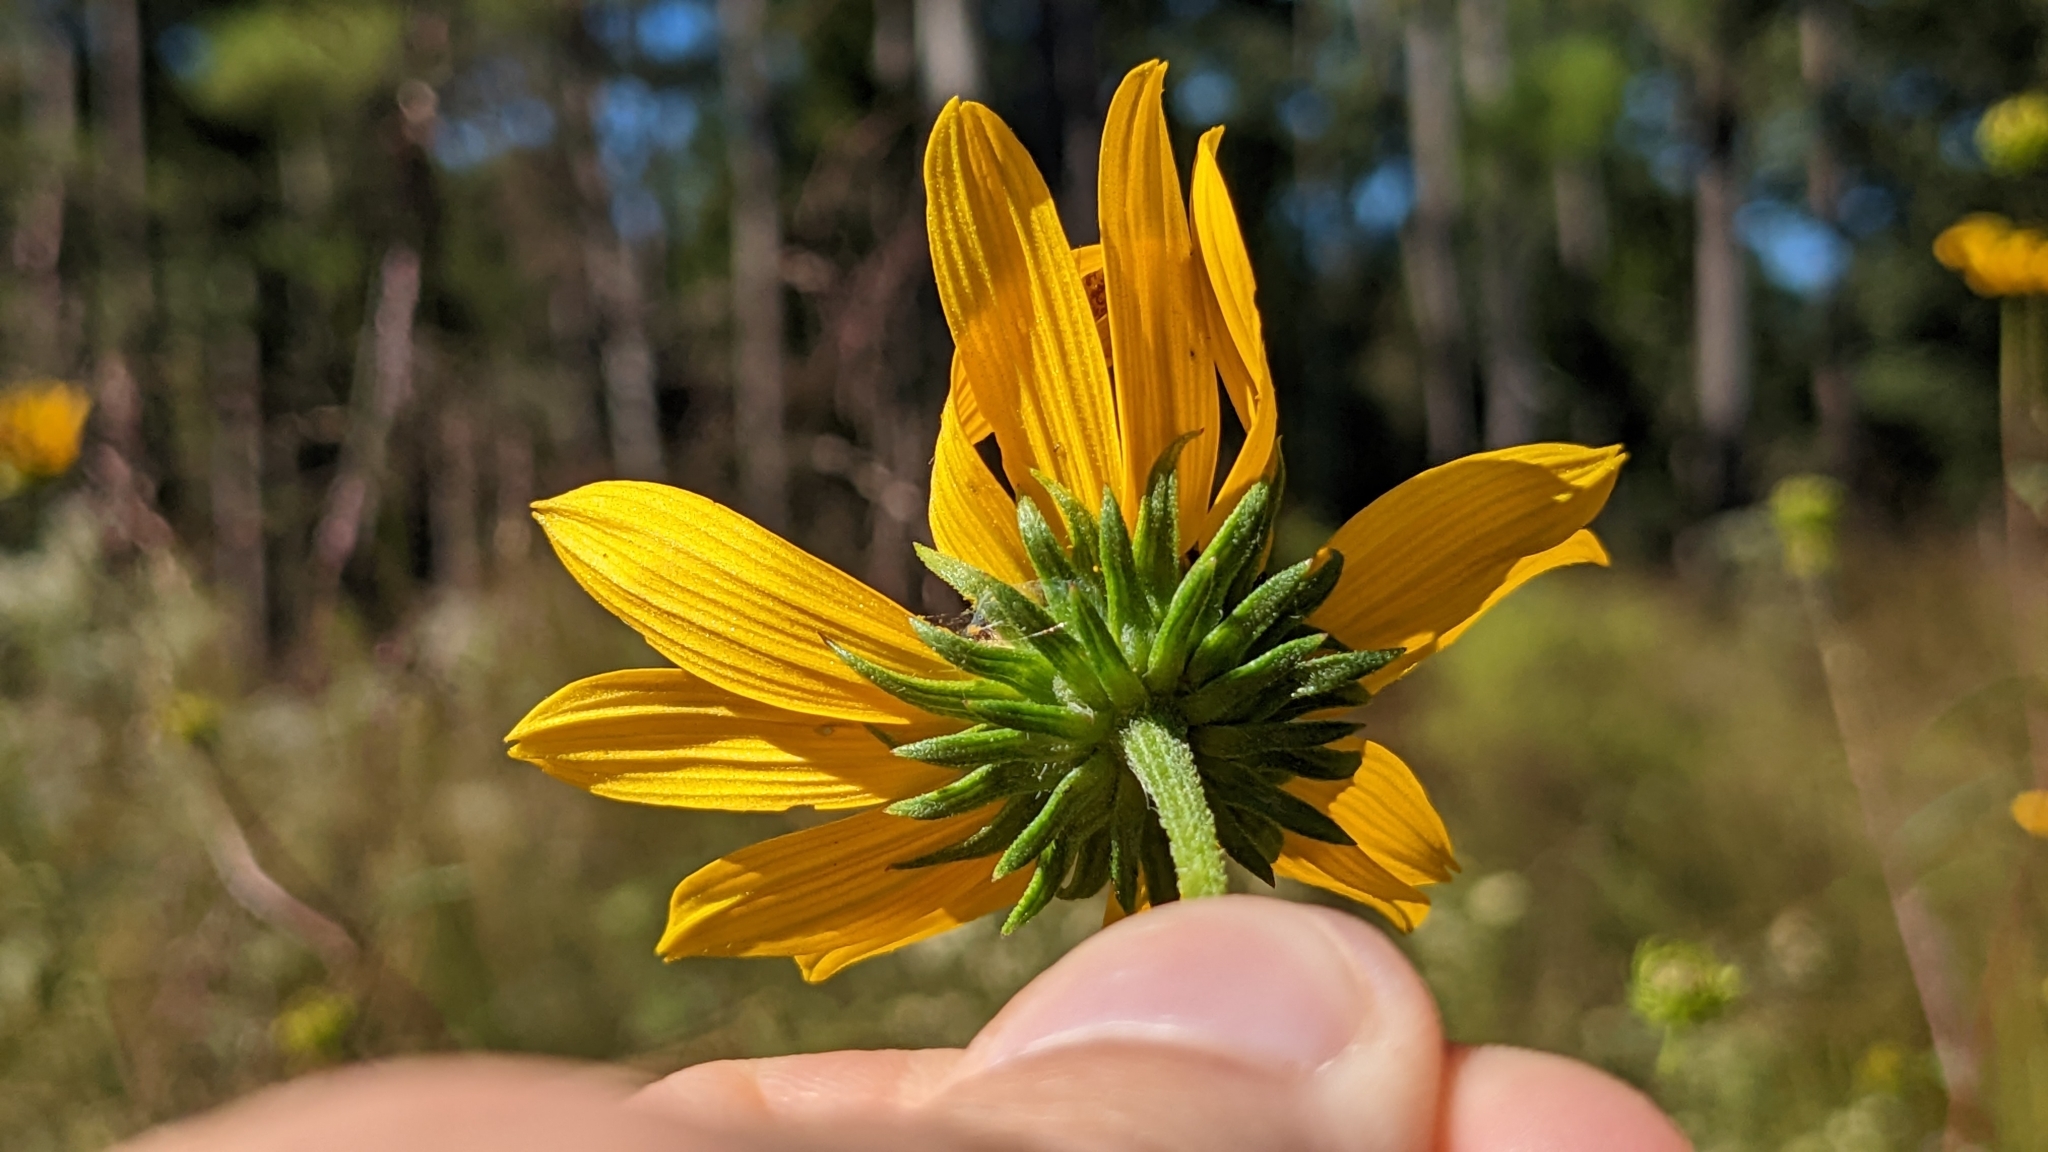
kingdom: Plantae
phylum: Tracheophyta
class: Magnoliopsida
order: Asterales
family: Asteraceae
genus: Helianthus
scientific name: Helianthus angustifolius
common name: Swamp sunflower
